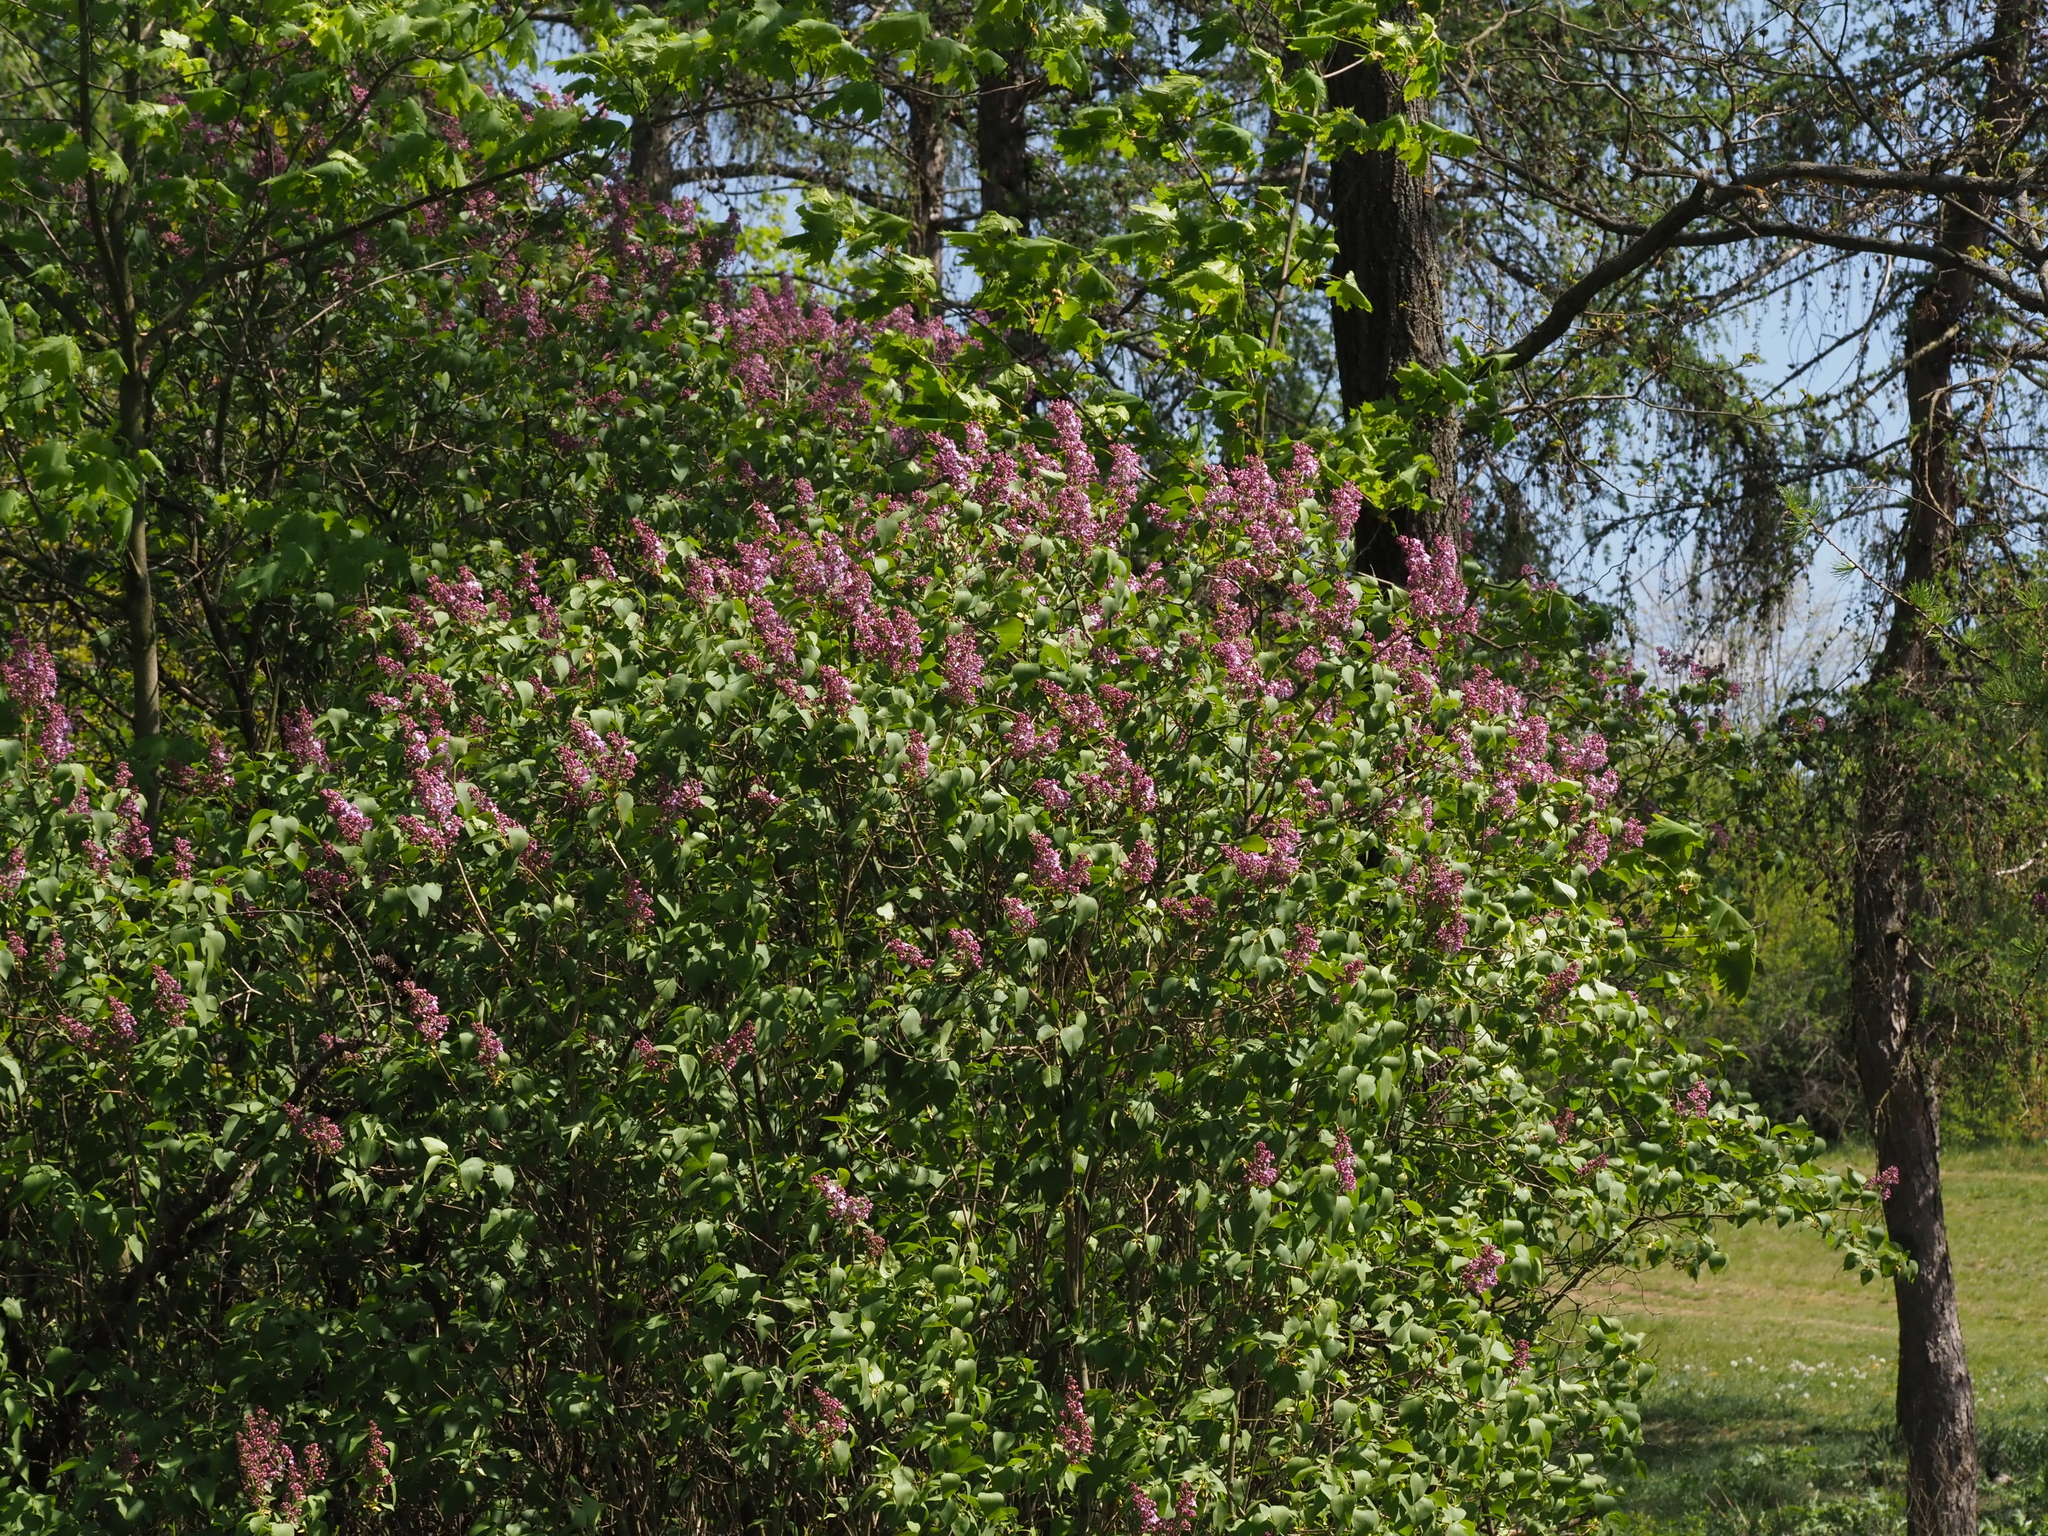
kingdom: Plantae
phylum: Tracheophyta
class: Magnoliopsida
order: Lamiales
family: Oleaceae
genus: Syringa
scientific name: Syringa vulgaris
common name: Common lilac
